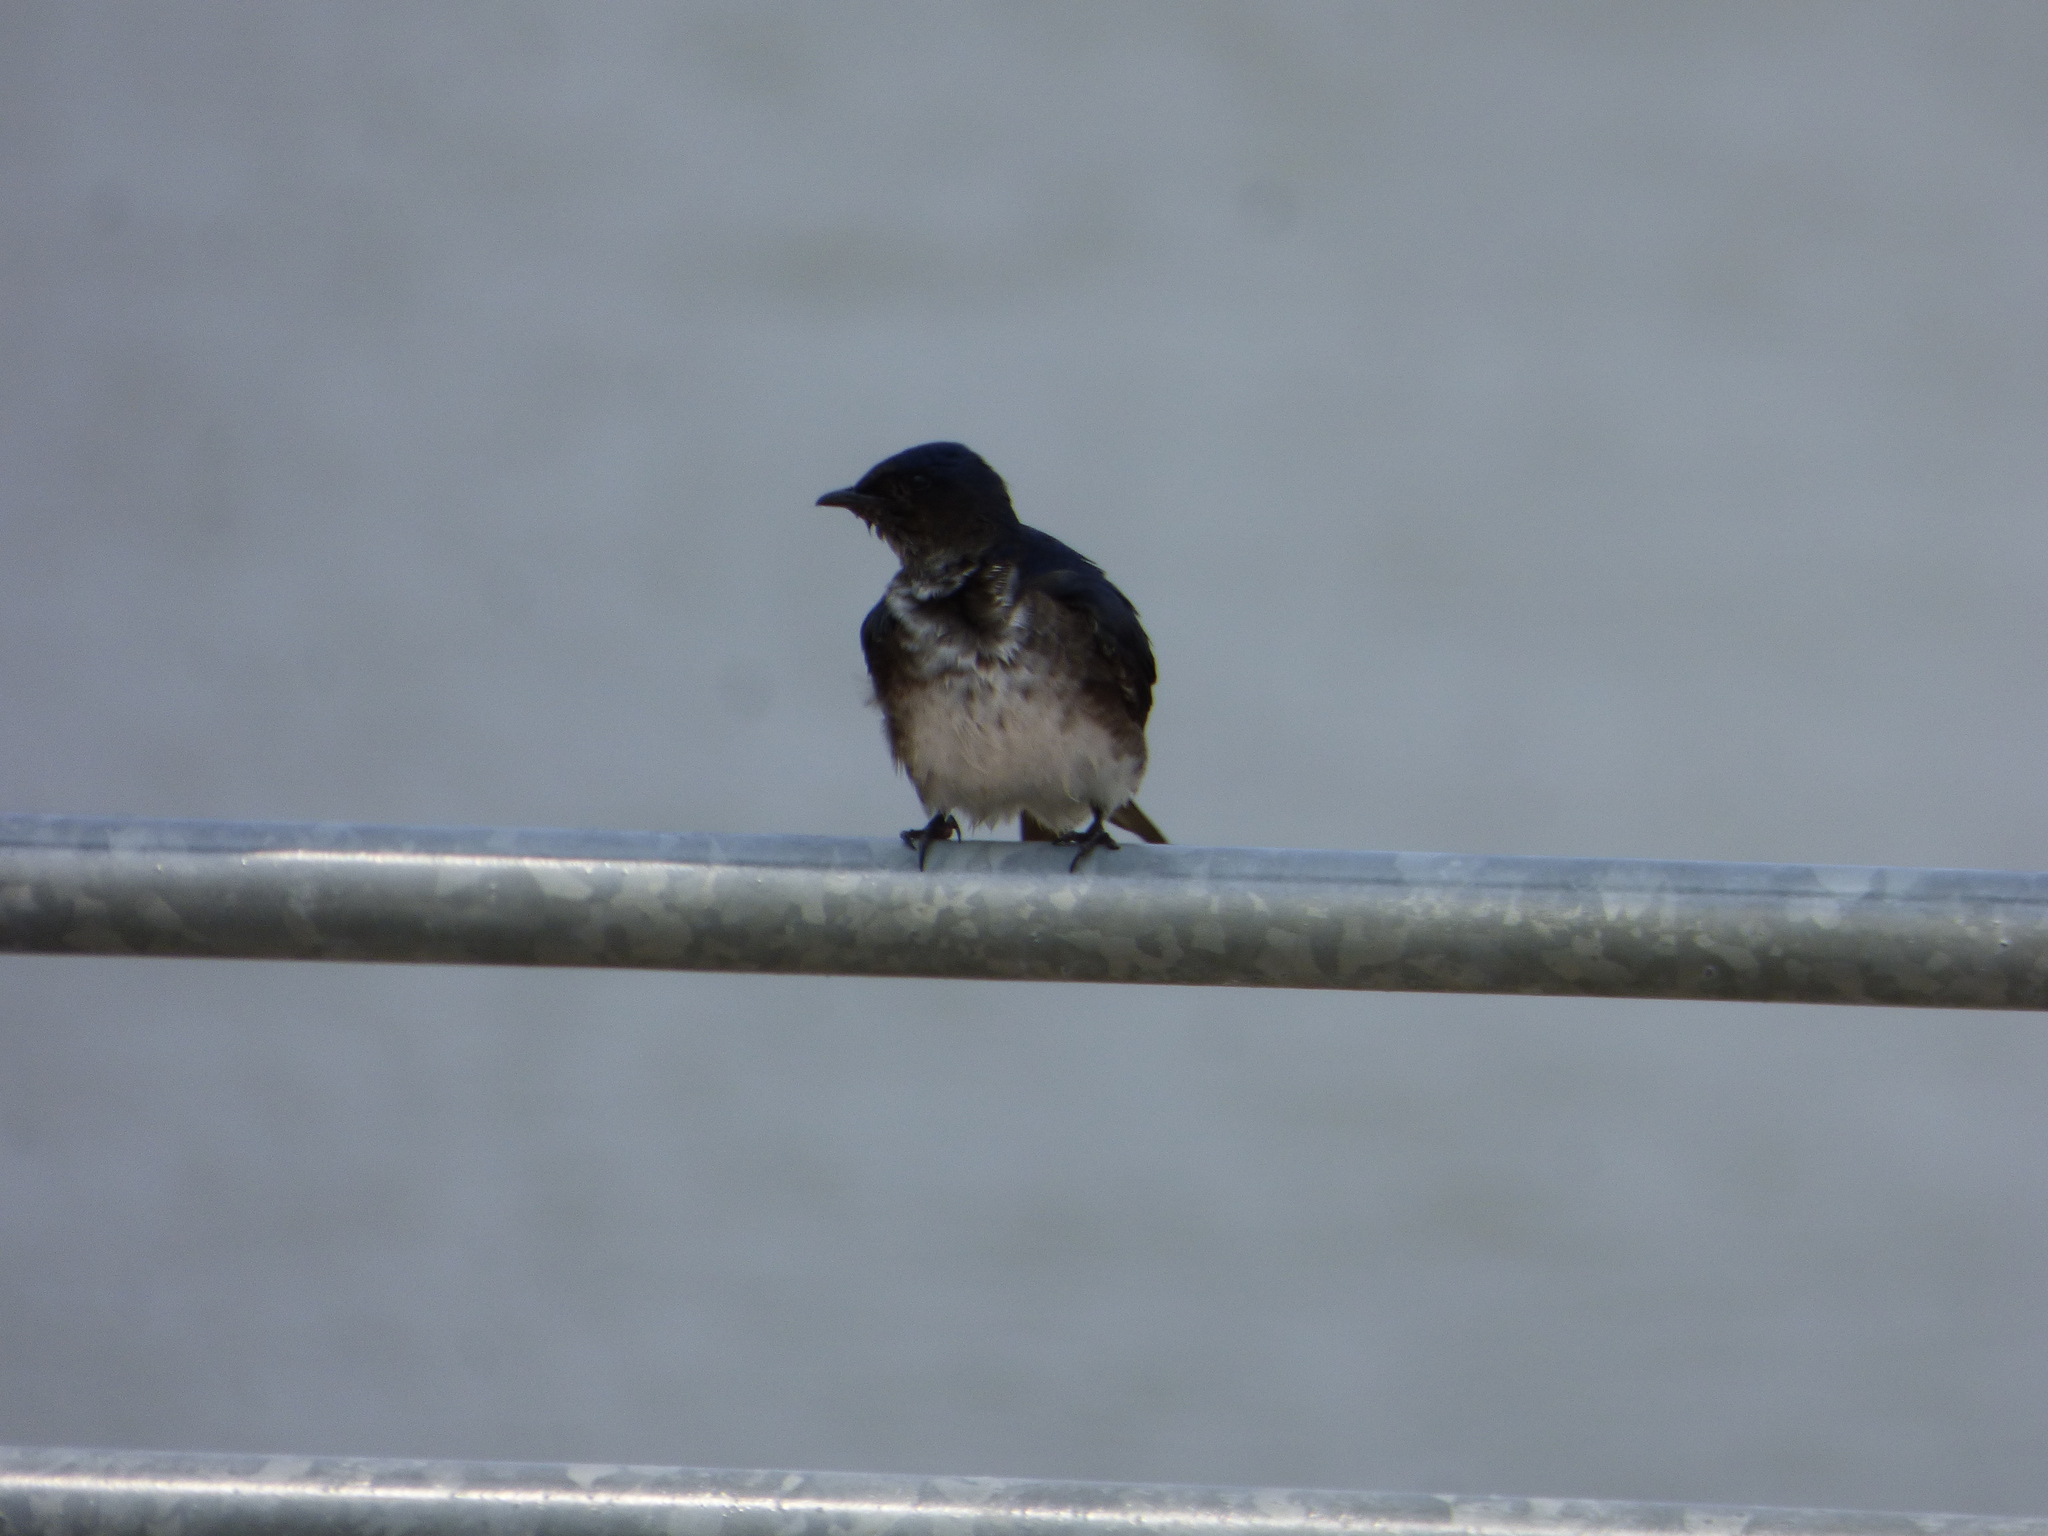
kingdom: Animalia
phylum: Chordata
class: Aves
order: Passeriformes
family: Hirundinidae
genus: Progne
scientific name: Progne chalybea
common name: Grey-breasted martin
